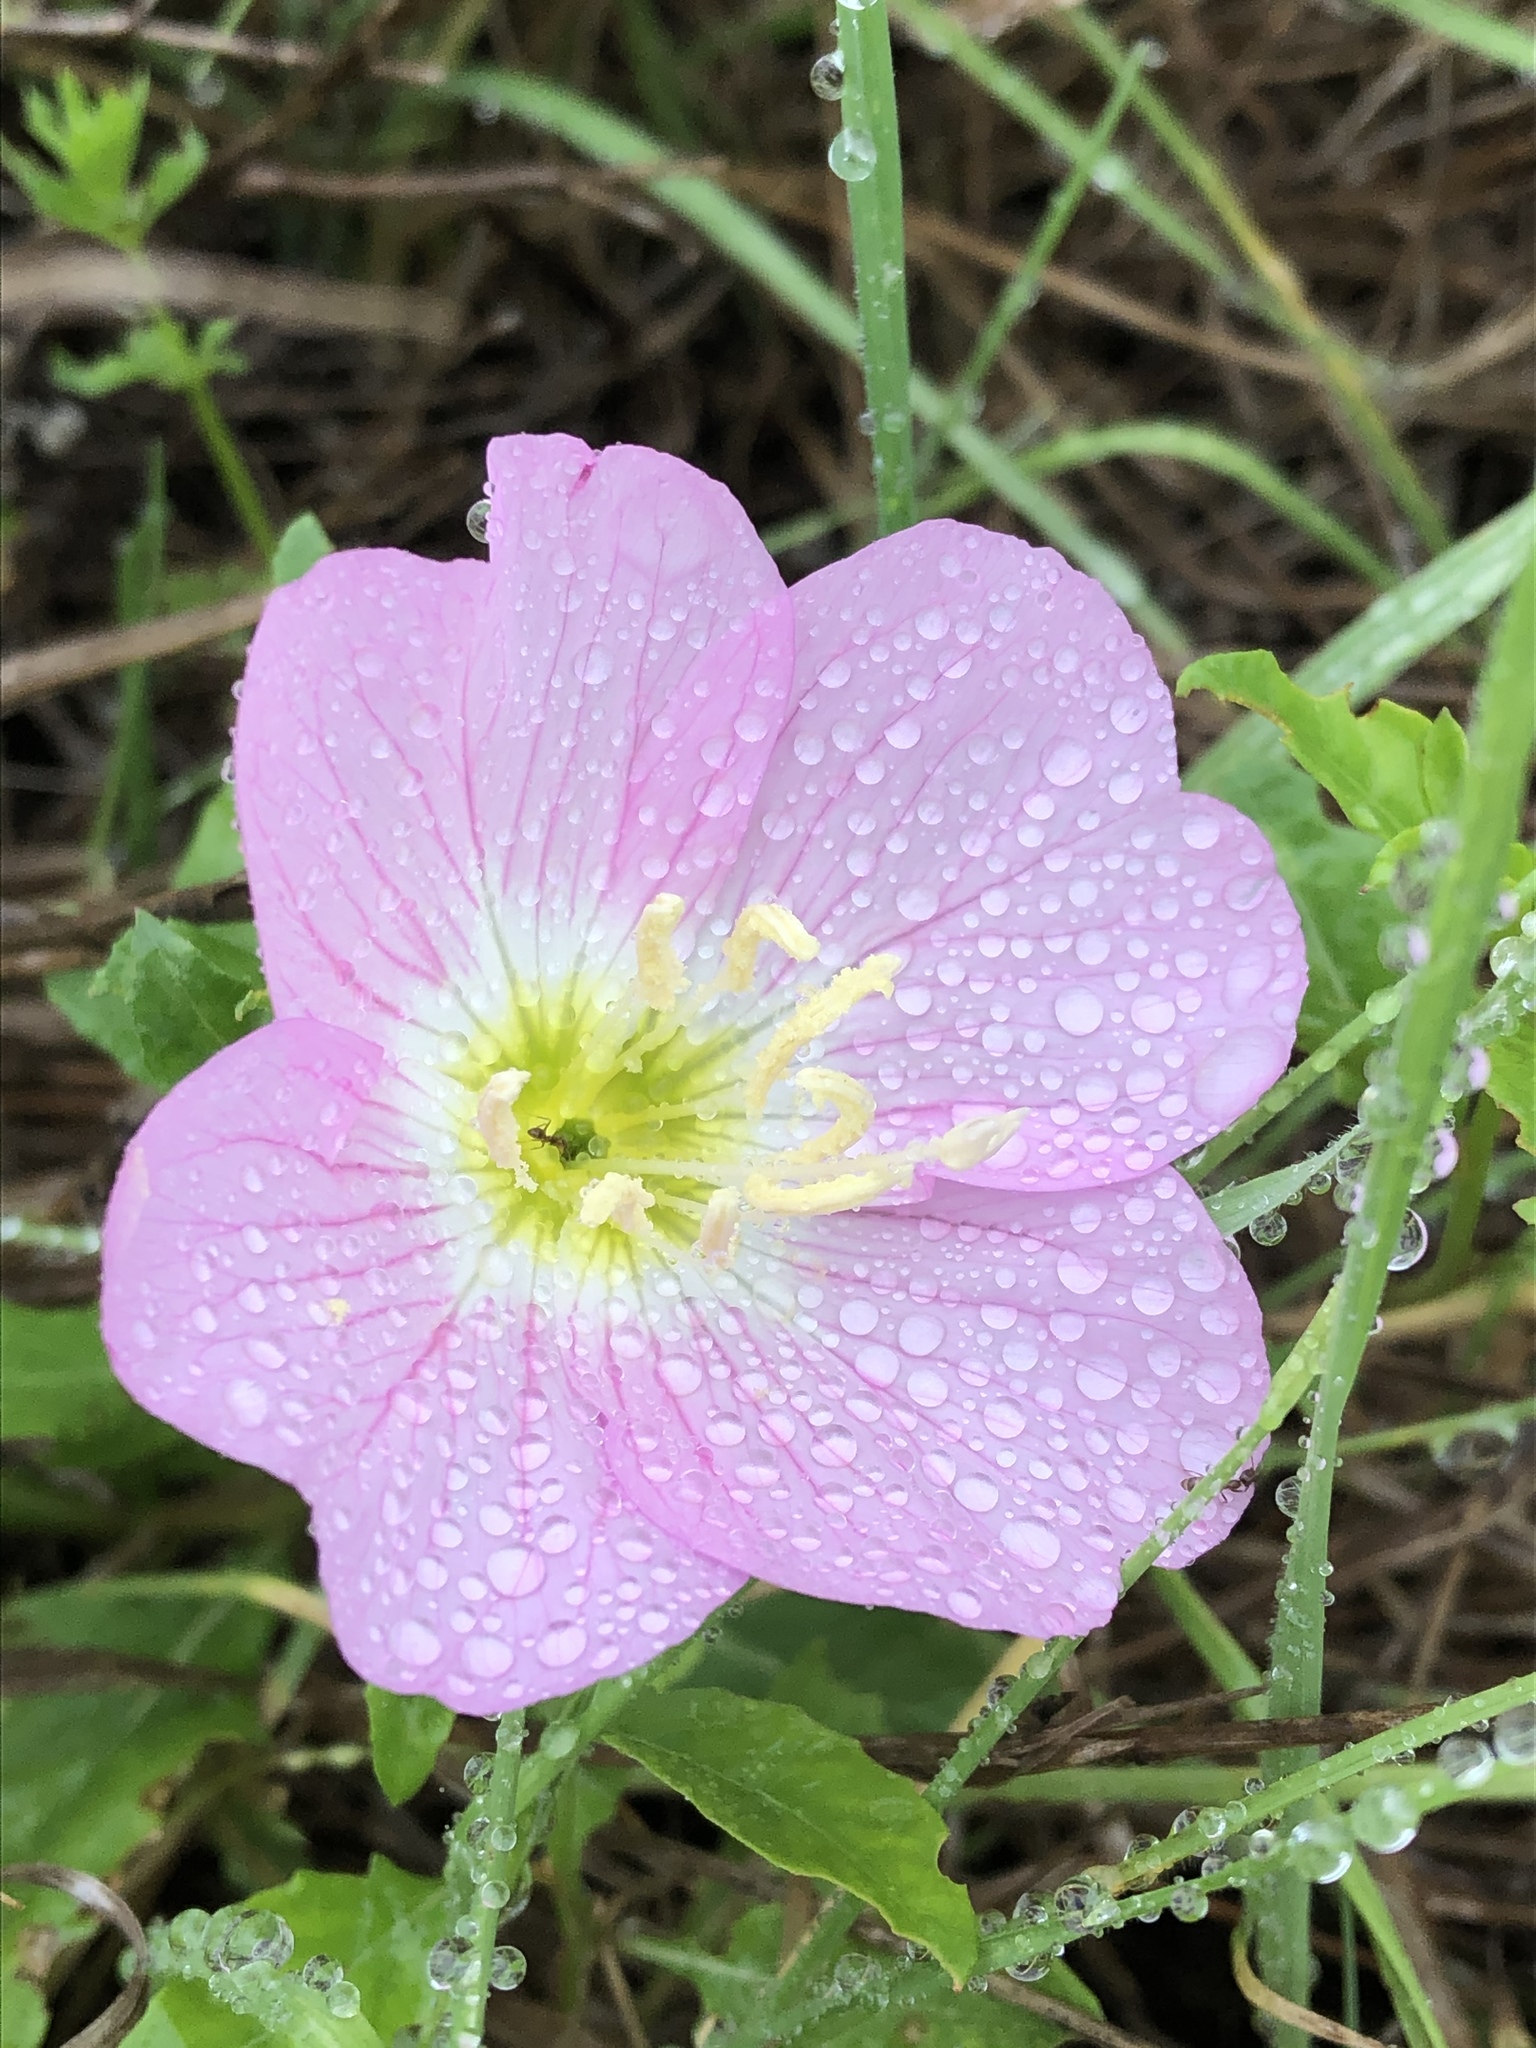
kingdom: Plantae
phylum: Tracheophyta
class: Magnoliopsida
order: Myrtales
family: Onagraceae
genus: Oenothera
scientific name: Oenothera speciosa
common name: White evening-primrose
